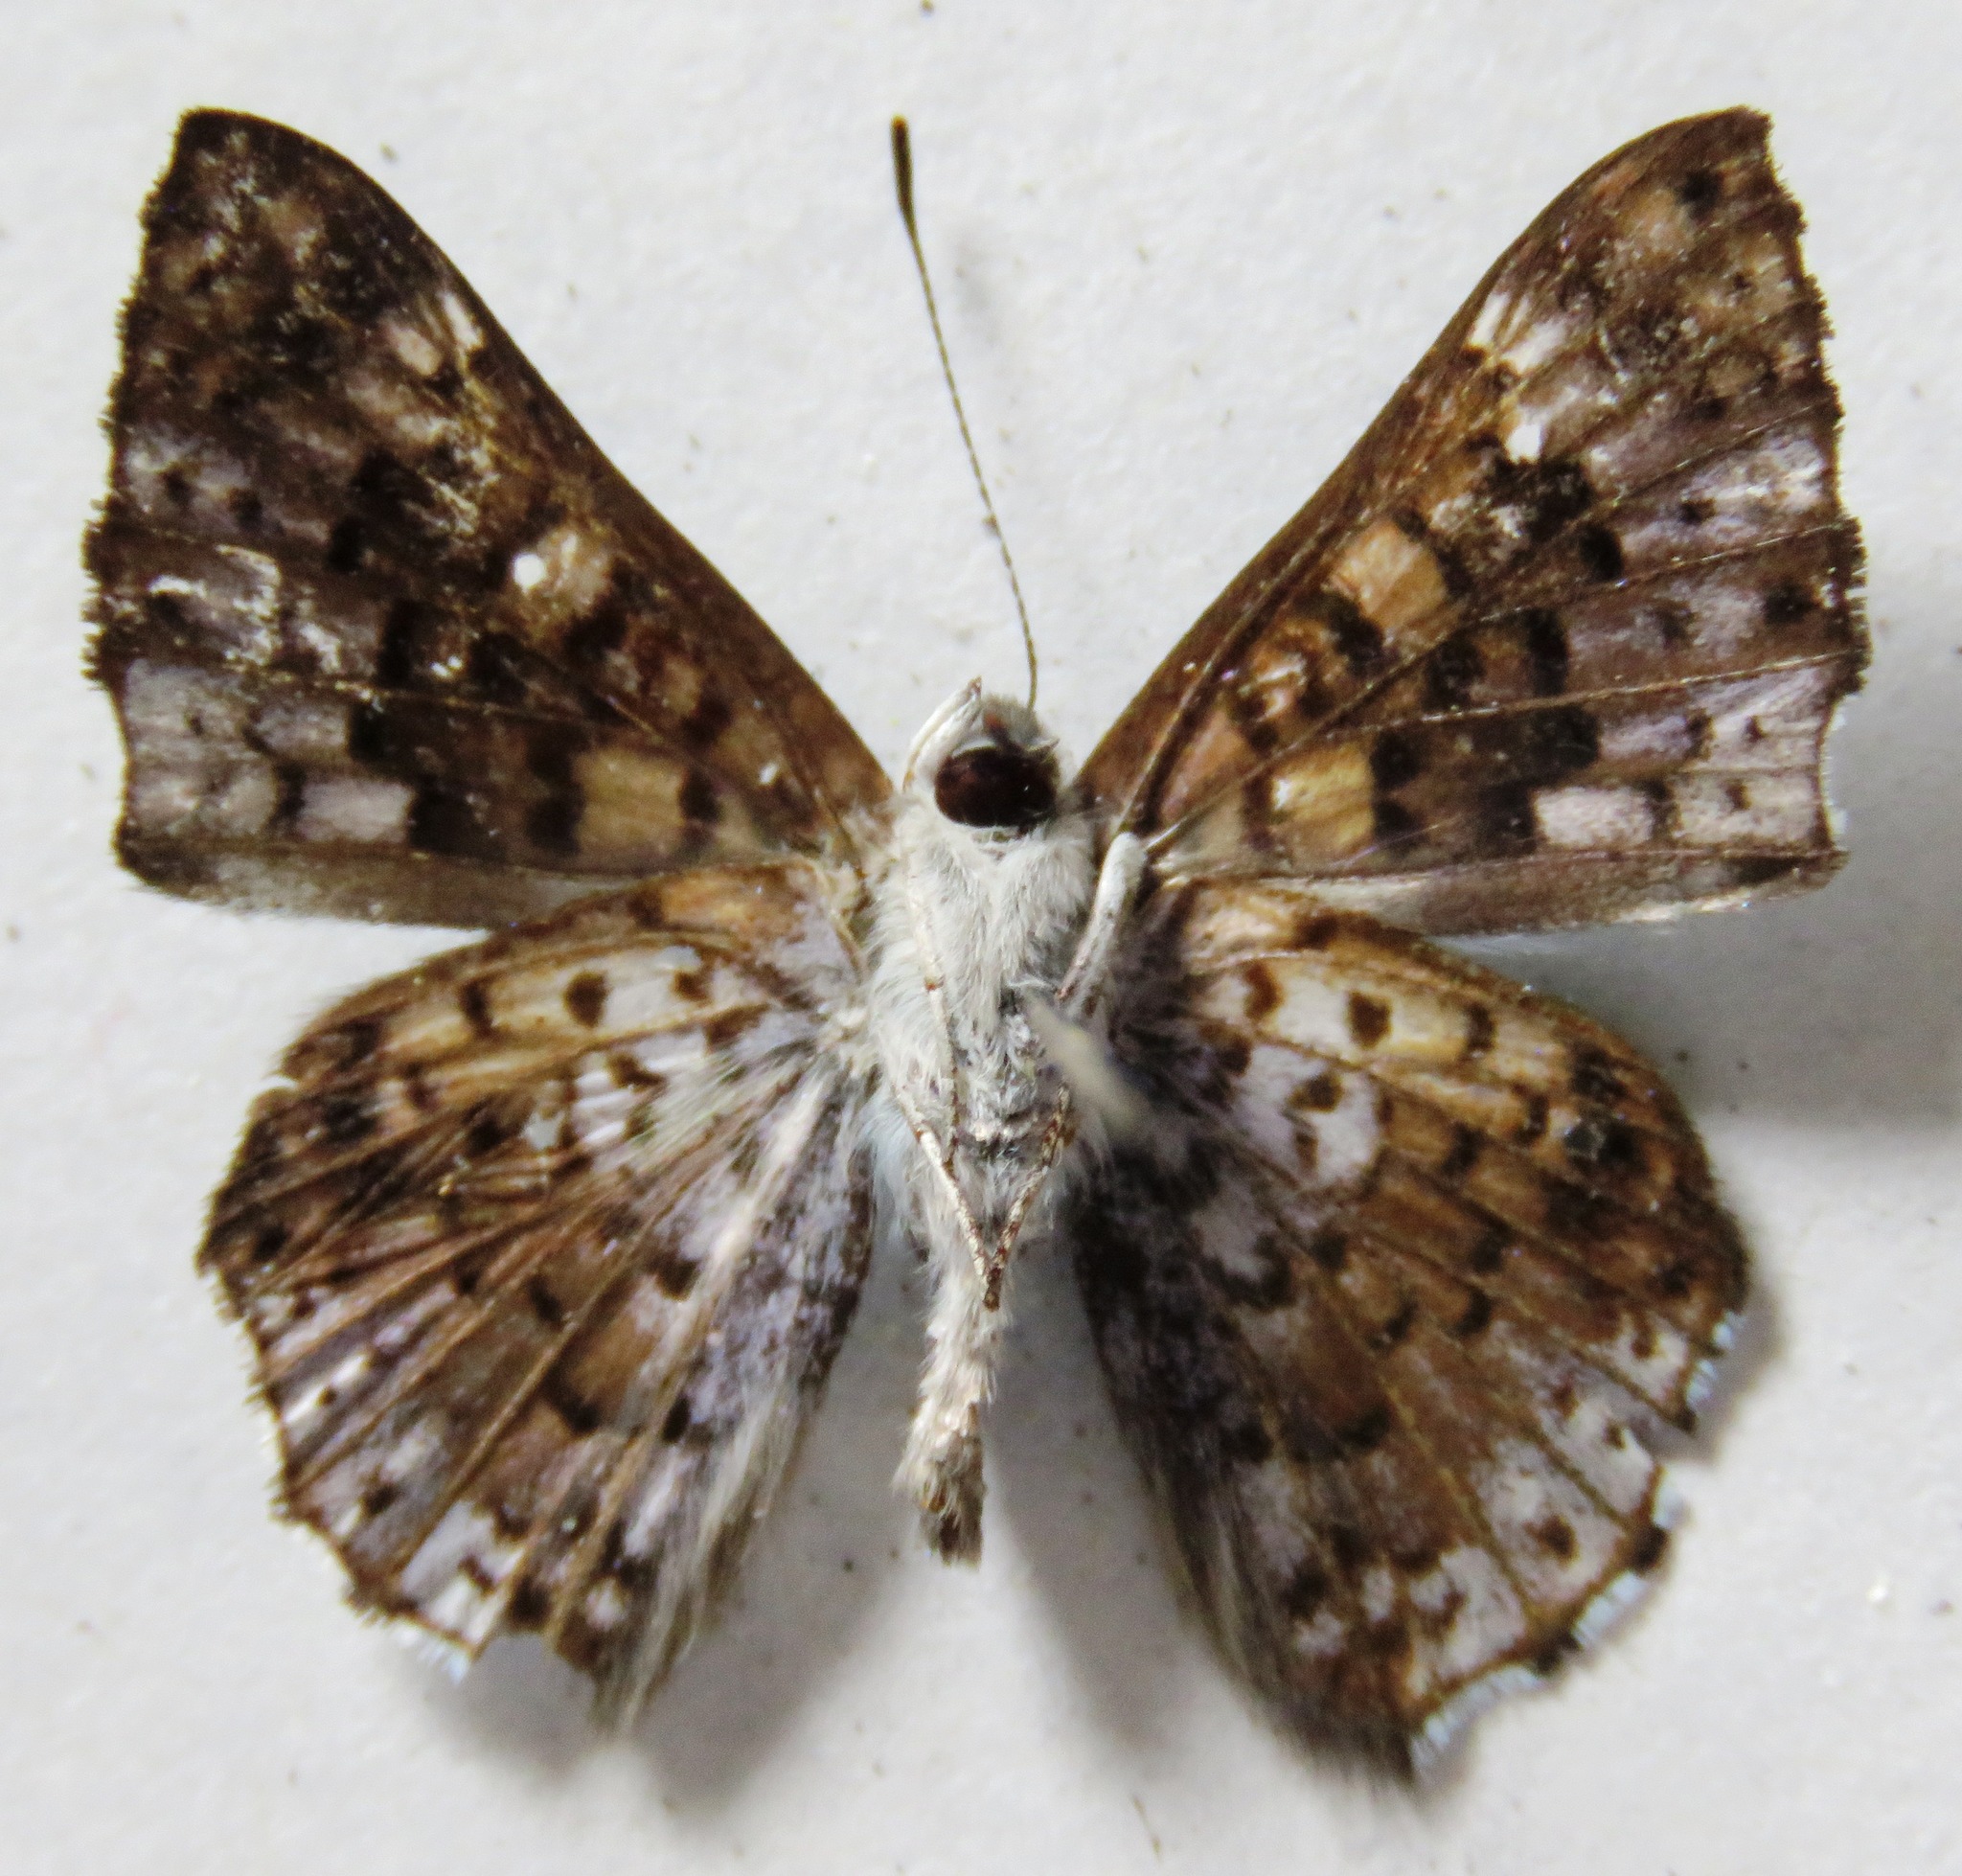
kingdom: Animalia
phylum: Arthropoda
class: Insecta
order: Lepidoptera
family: Riodinidae
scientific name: Riodinidae
